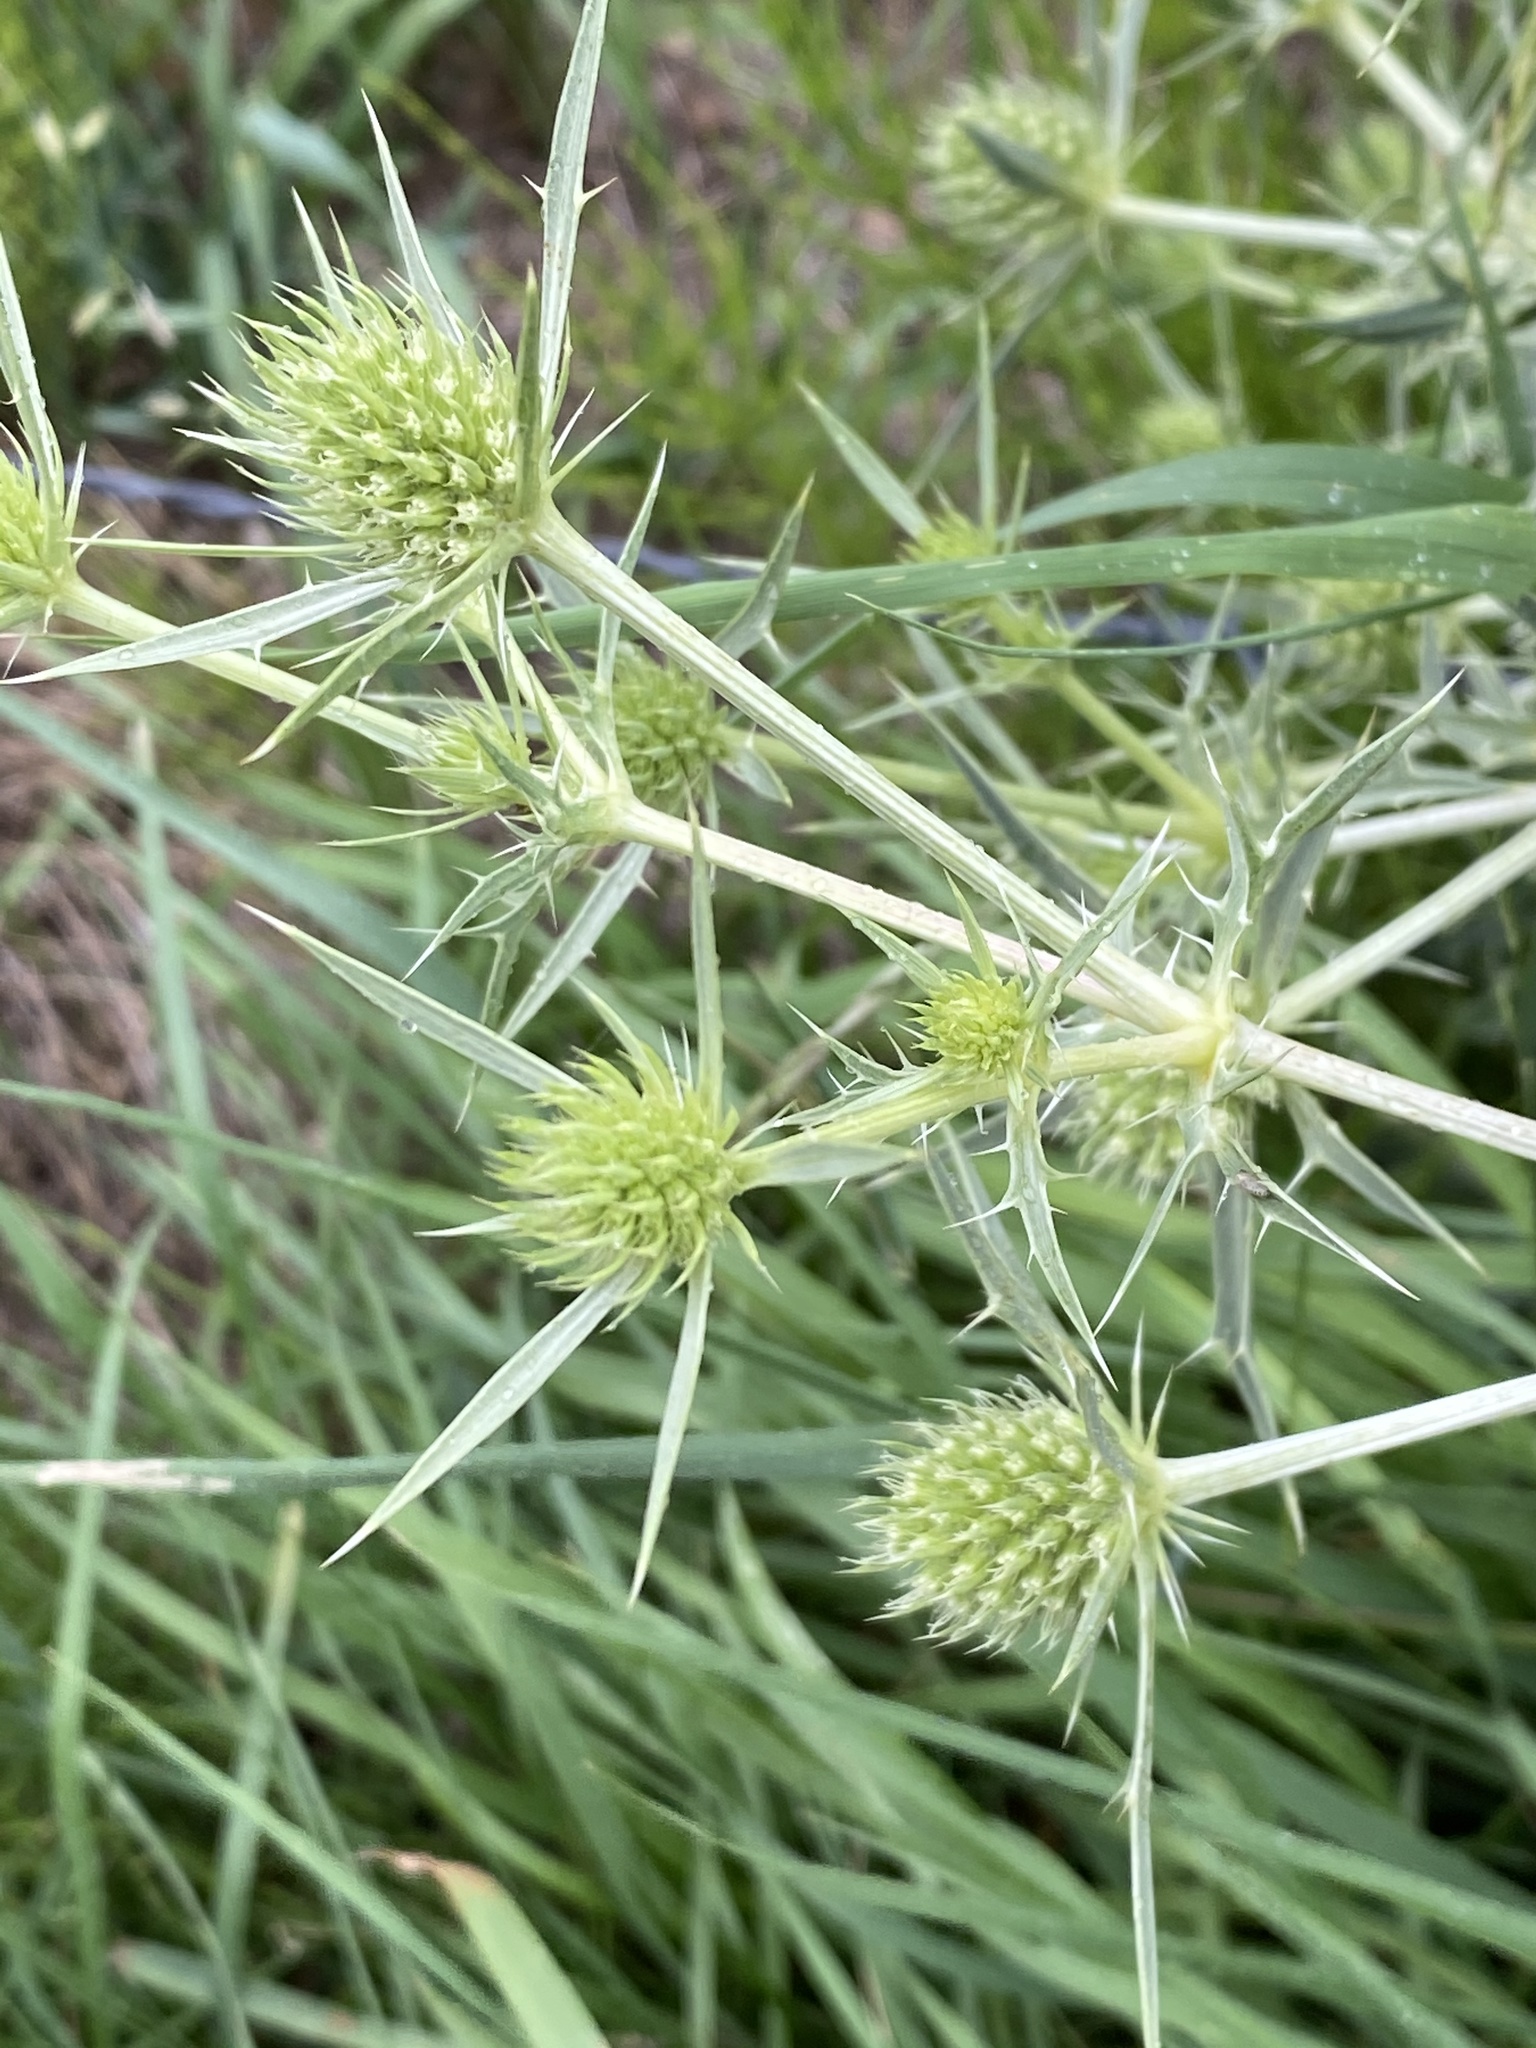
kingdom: Plantae
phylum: Tracheophyta
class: Magnoliopsida
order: Apiales
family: Apiaceae
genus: Eryngium
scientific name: Eryngium campestre
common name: Field eryngo
